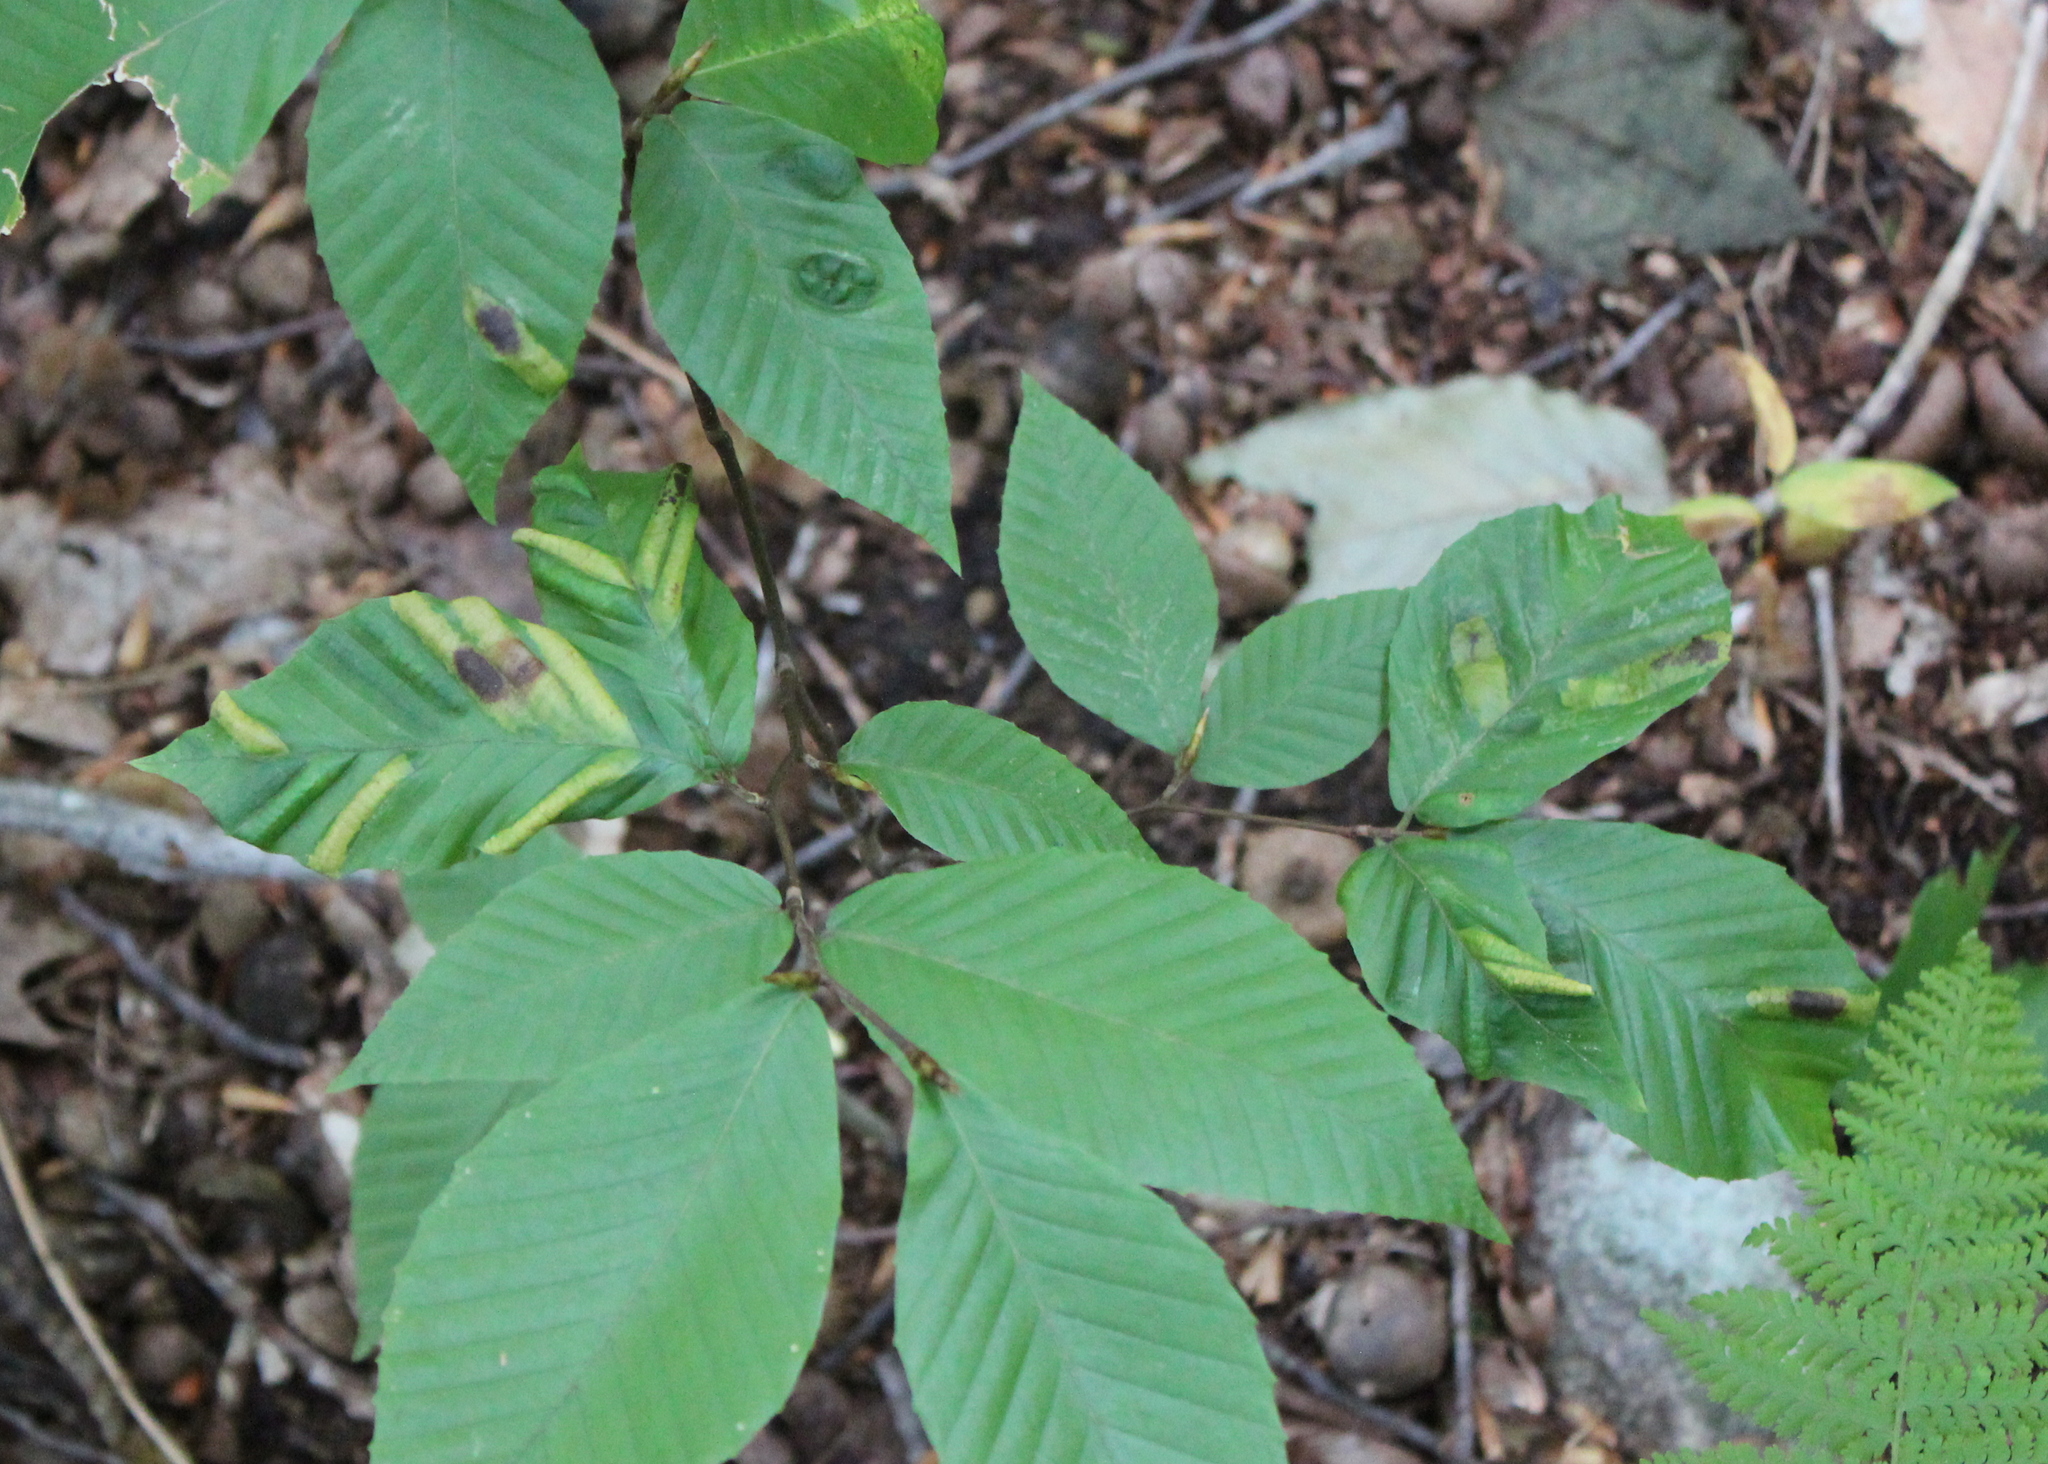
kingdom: Plantae
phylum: Tracheophyta
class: Magnoliopsida
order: Fagales
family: Fagaceae
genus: Fagus
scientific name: Fagus grandifolia
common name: American beech
